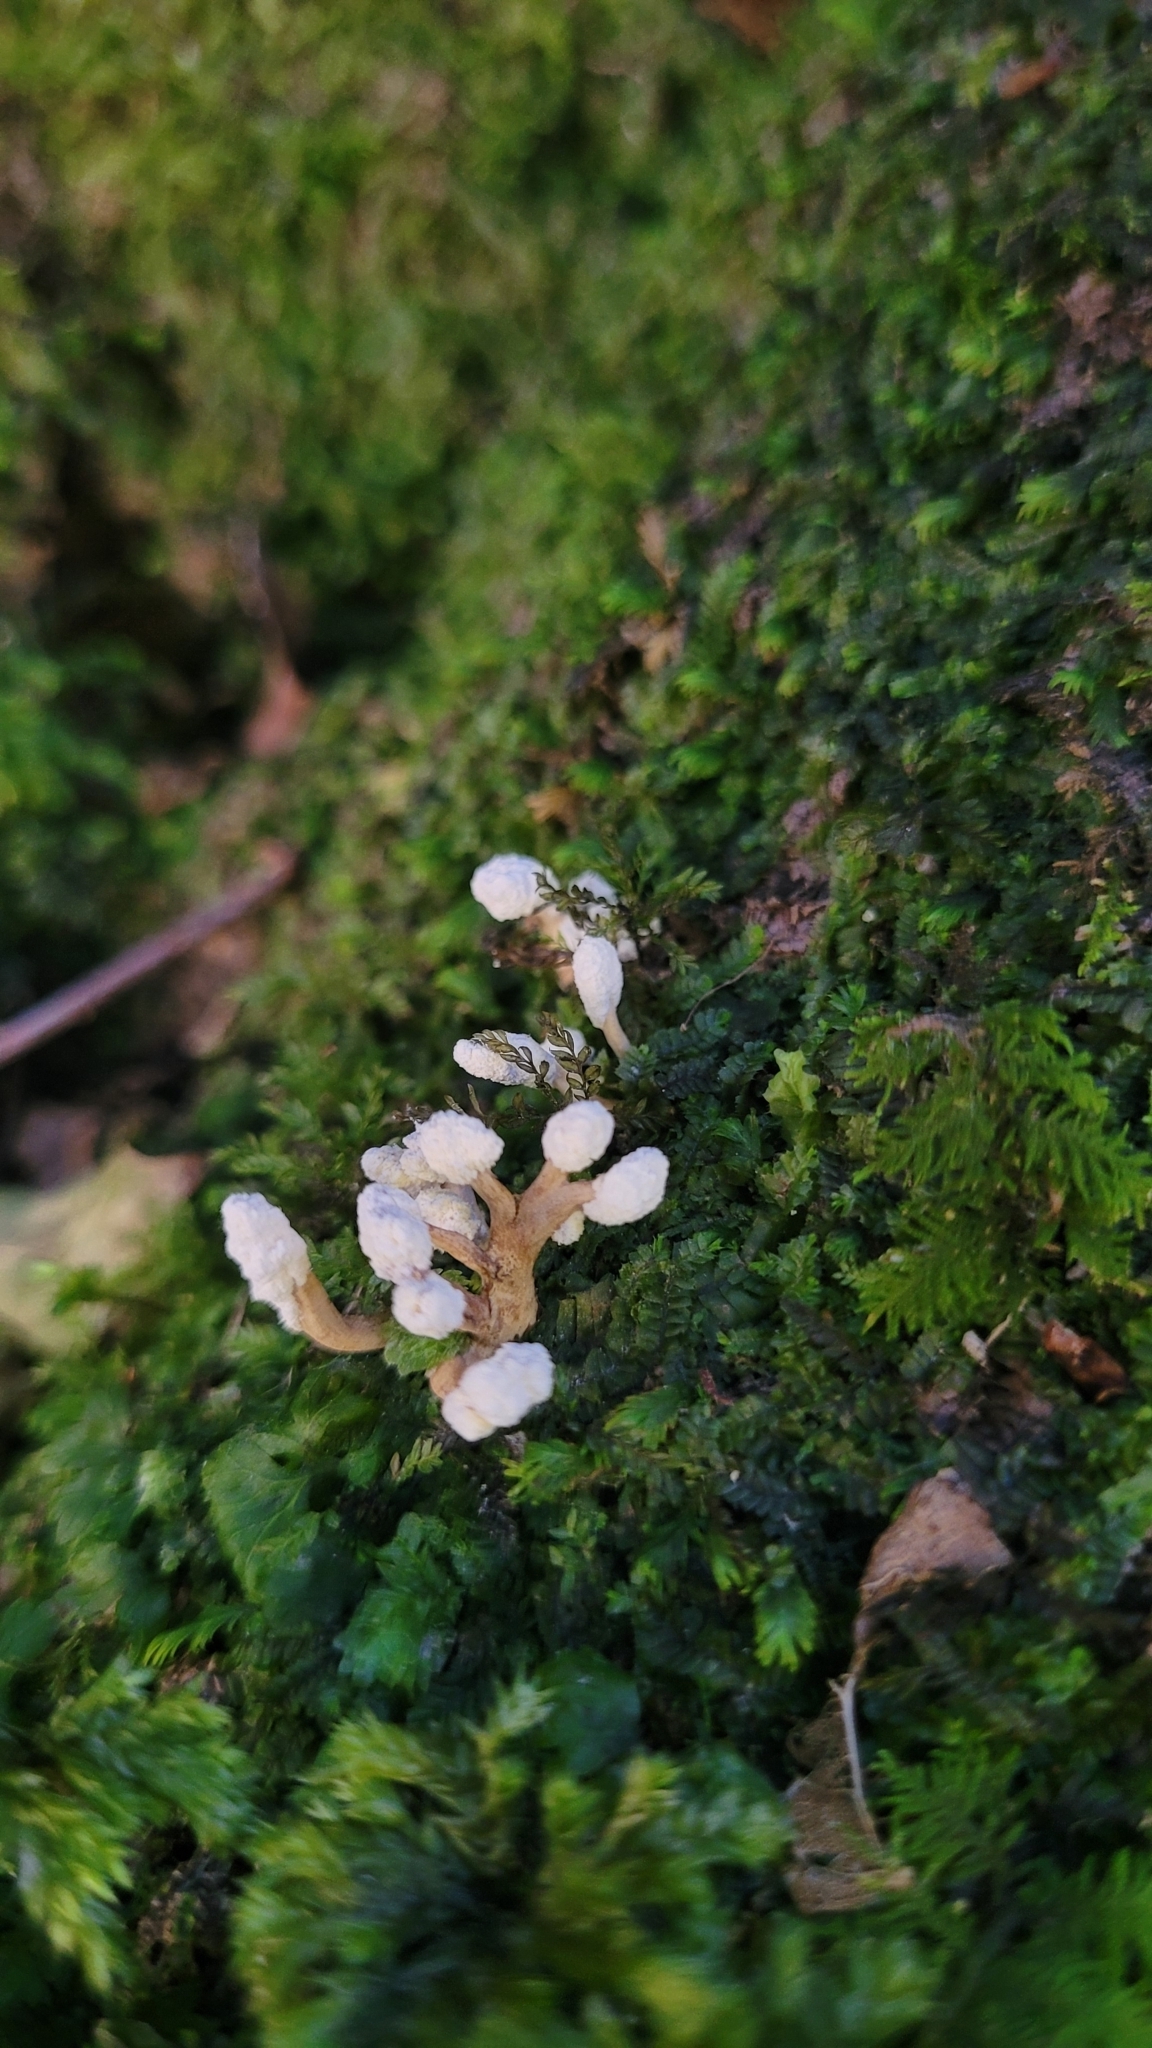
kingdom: Fungi
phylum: Ascomycota
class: Sordariomycetes
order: Hypocreales
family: Cordycipitaceae
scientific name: Cordycipitaceae
